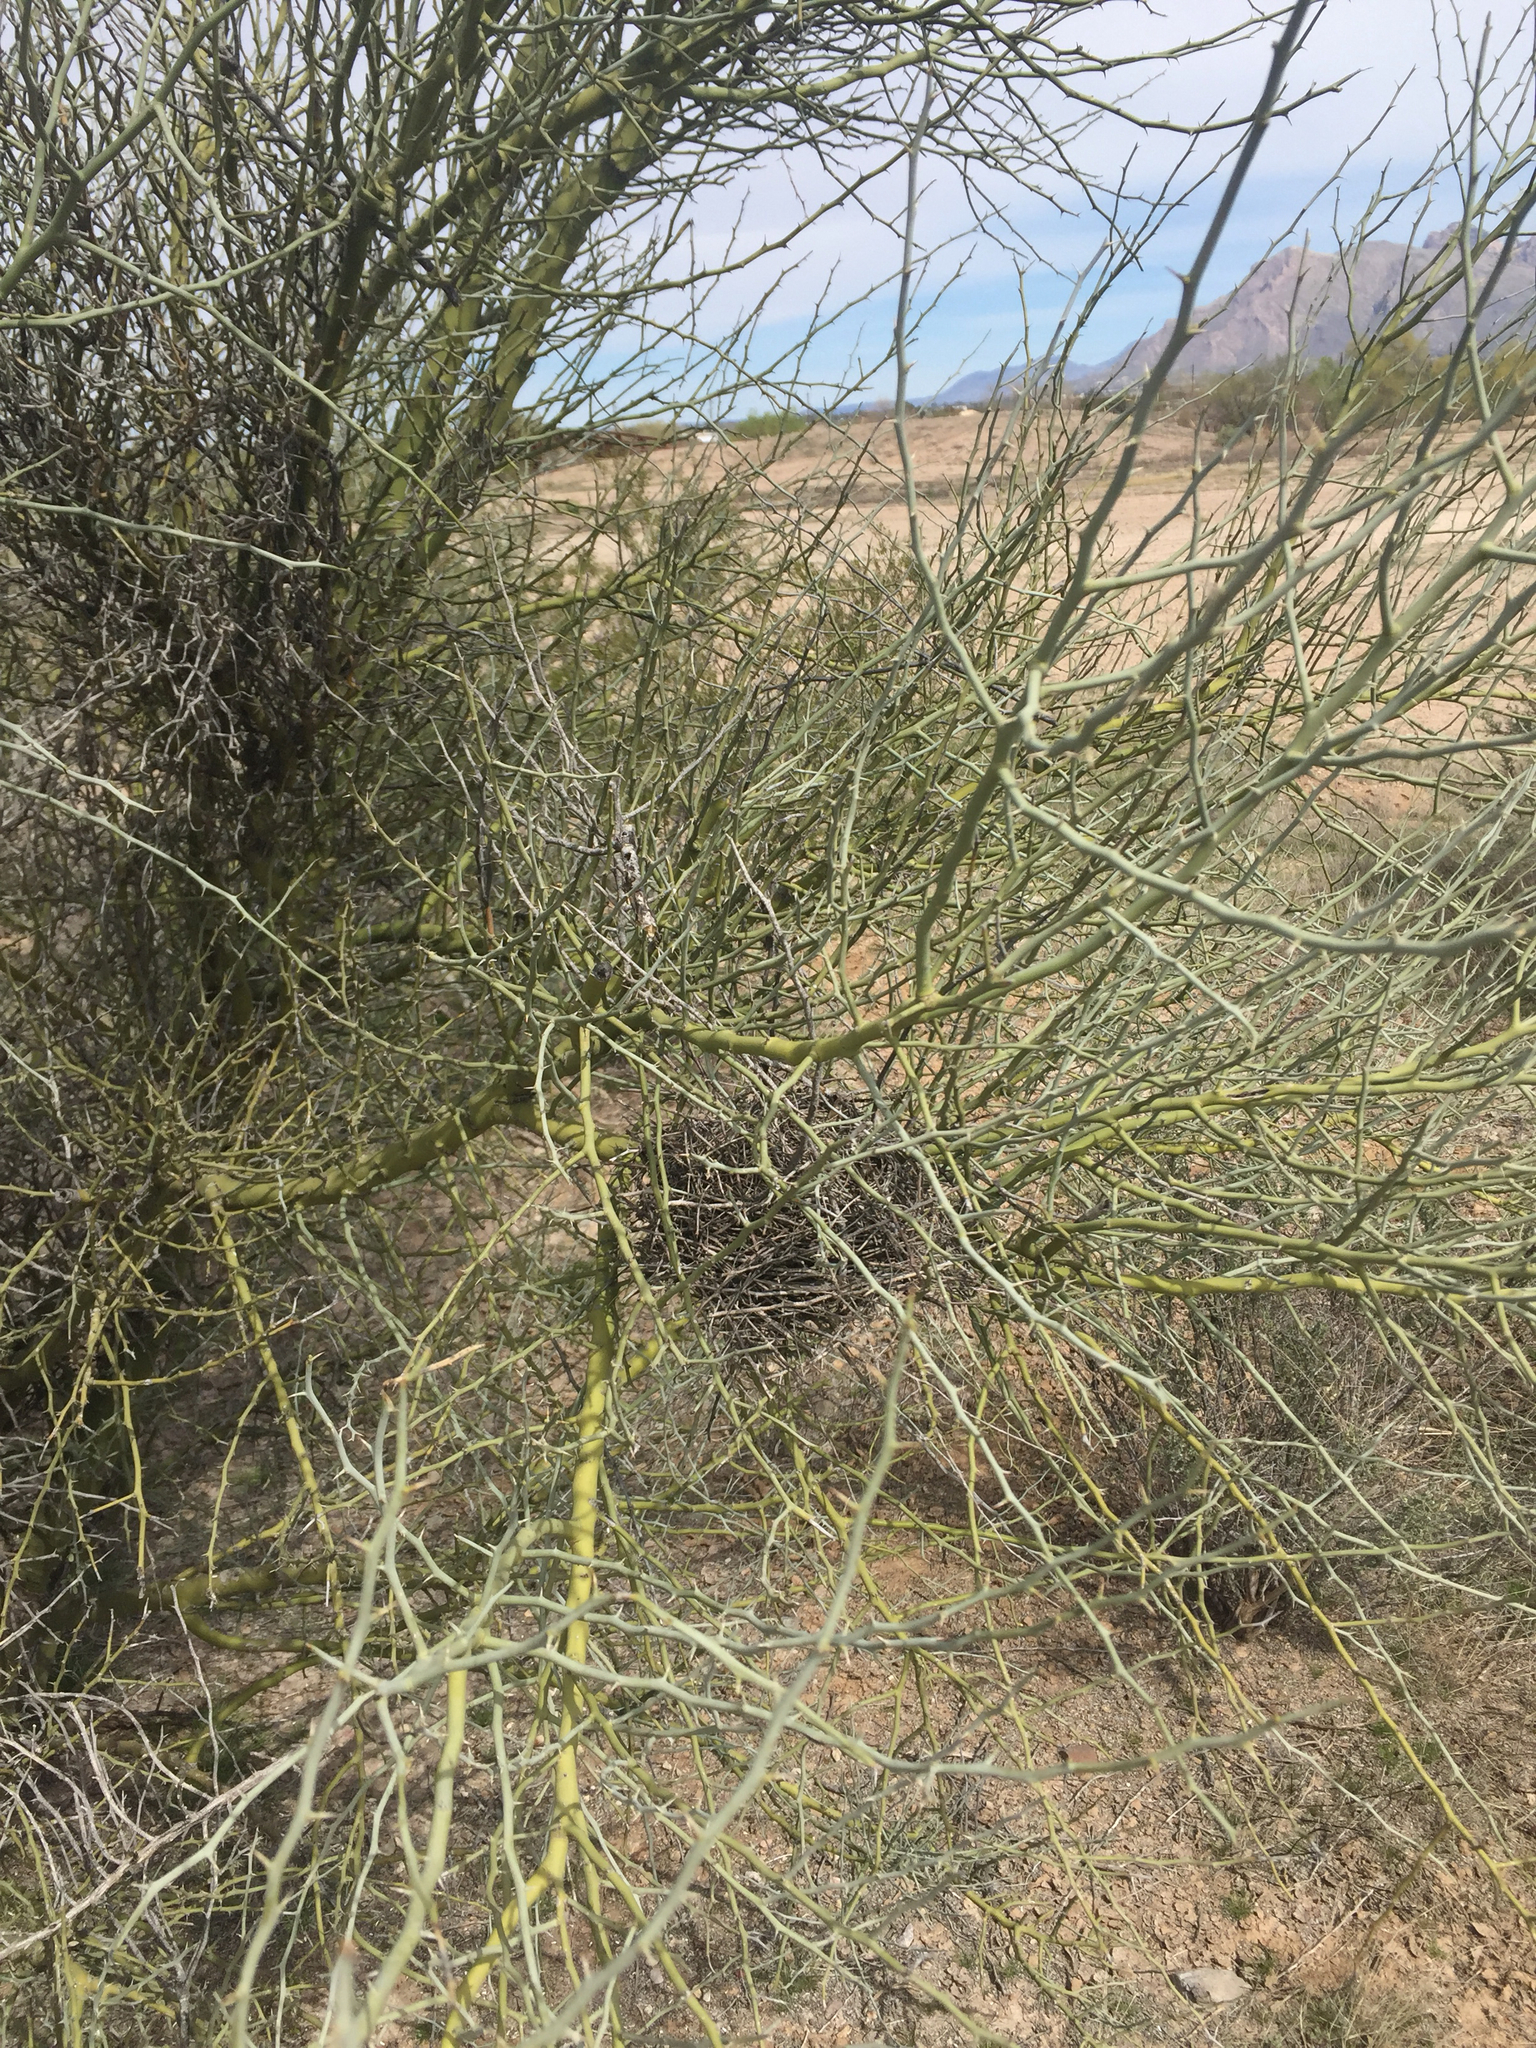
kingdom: Plantae
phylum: Tracheophyta
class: Magnoliopsida
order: Fabales
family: Fabaceae
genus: Parkinsonia
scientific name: Parkinsonia florida
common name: Blue paloverde
